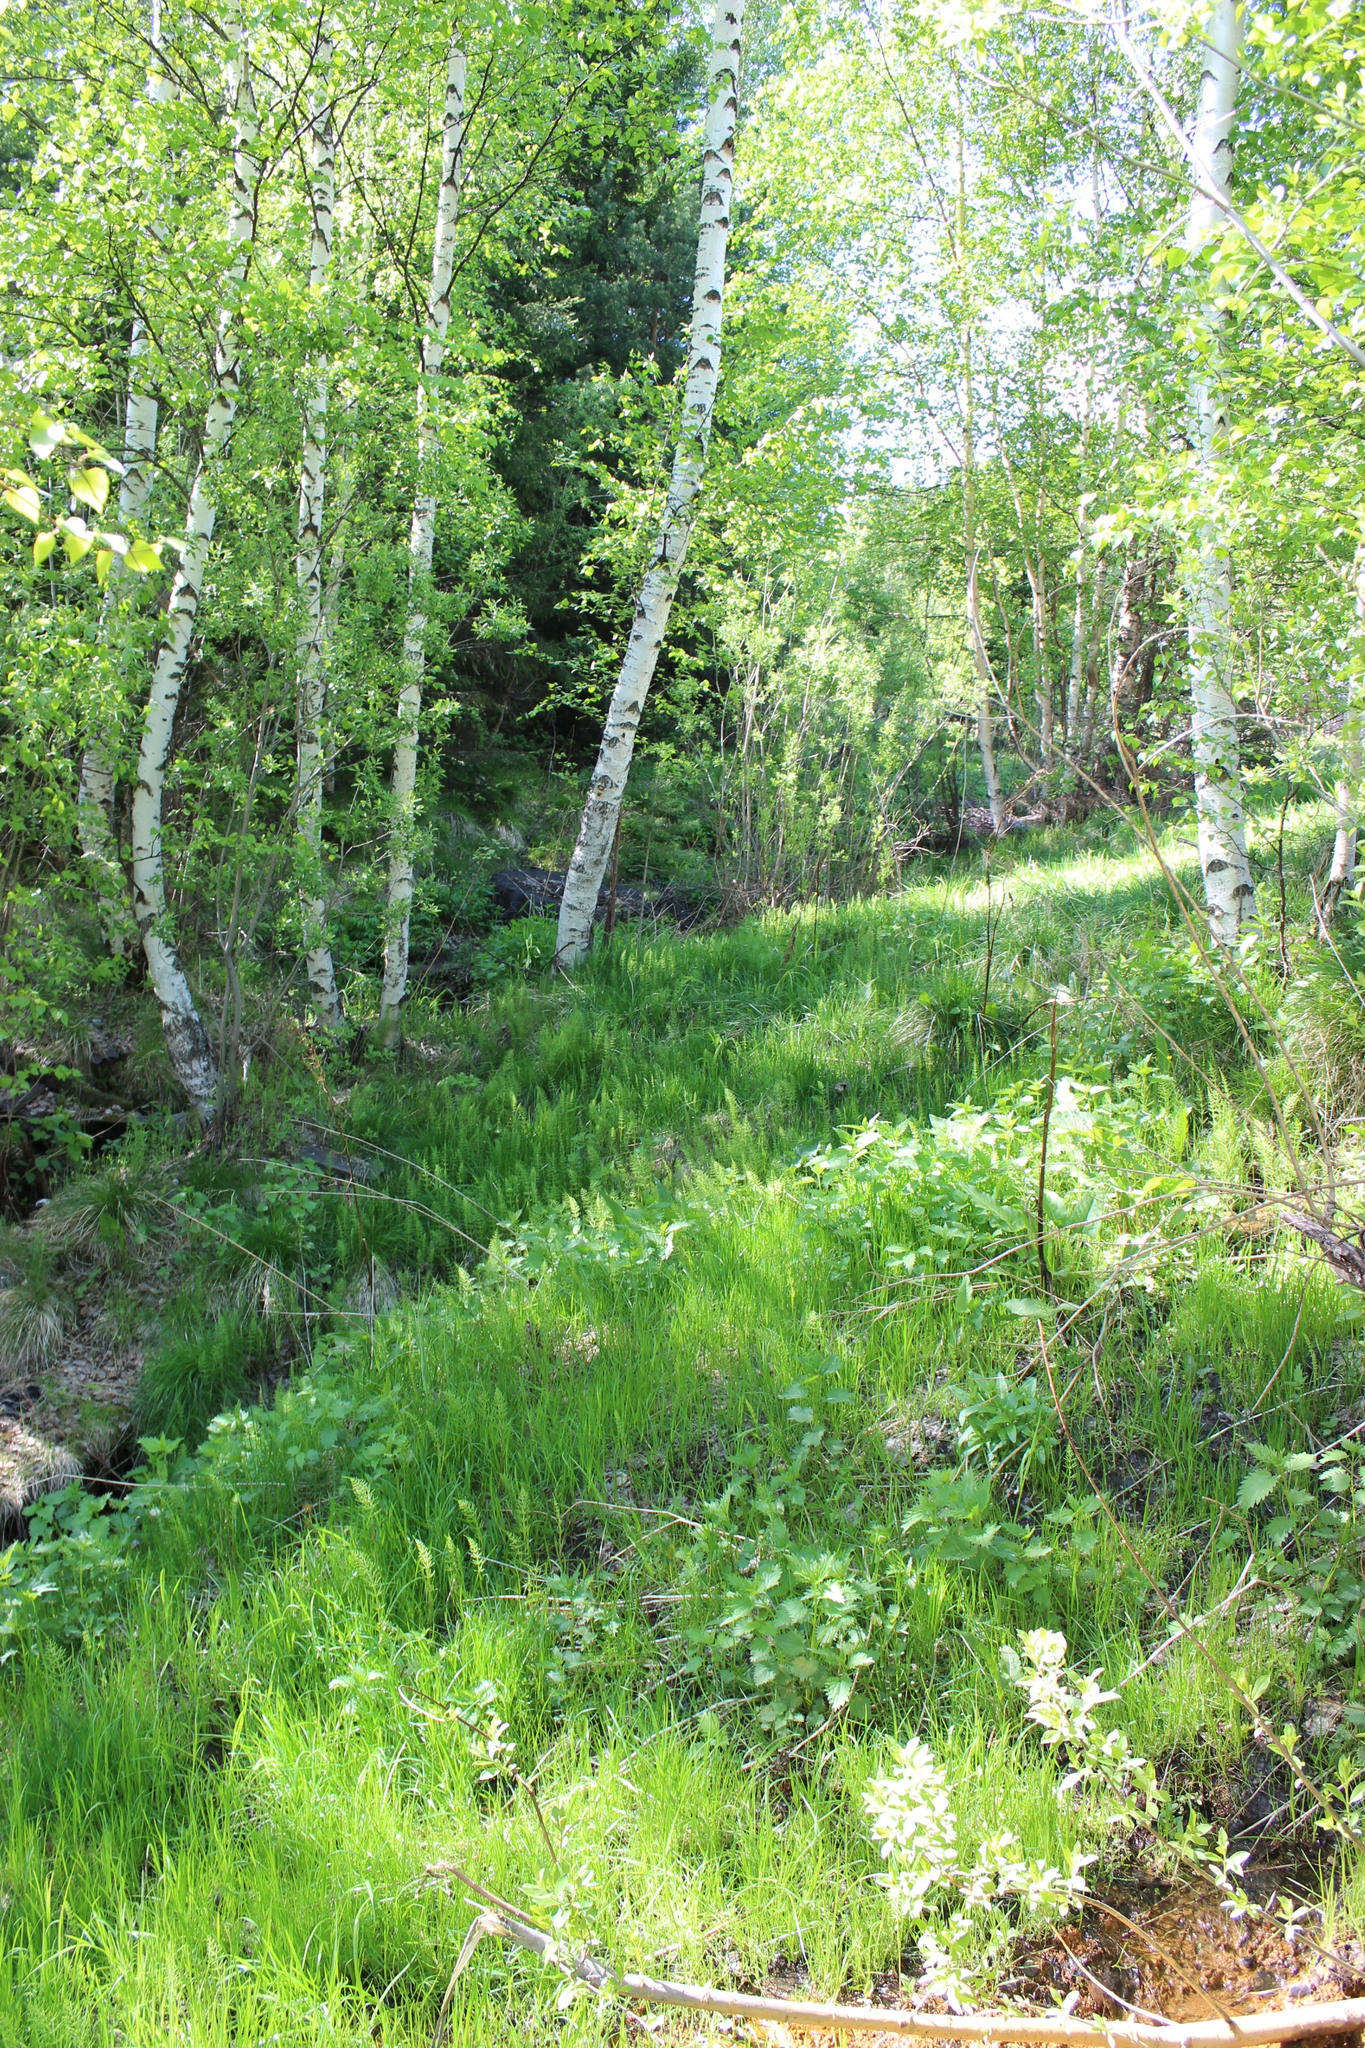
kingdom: Plantae
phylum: Tracheophyta
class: Magnoliopsida
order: Fagales
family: Betulaceae
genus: Betula
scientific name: Betula pubescens
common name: Downy birch
